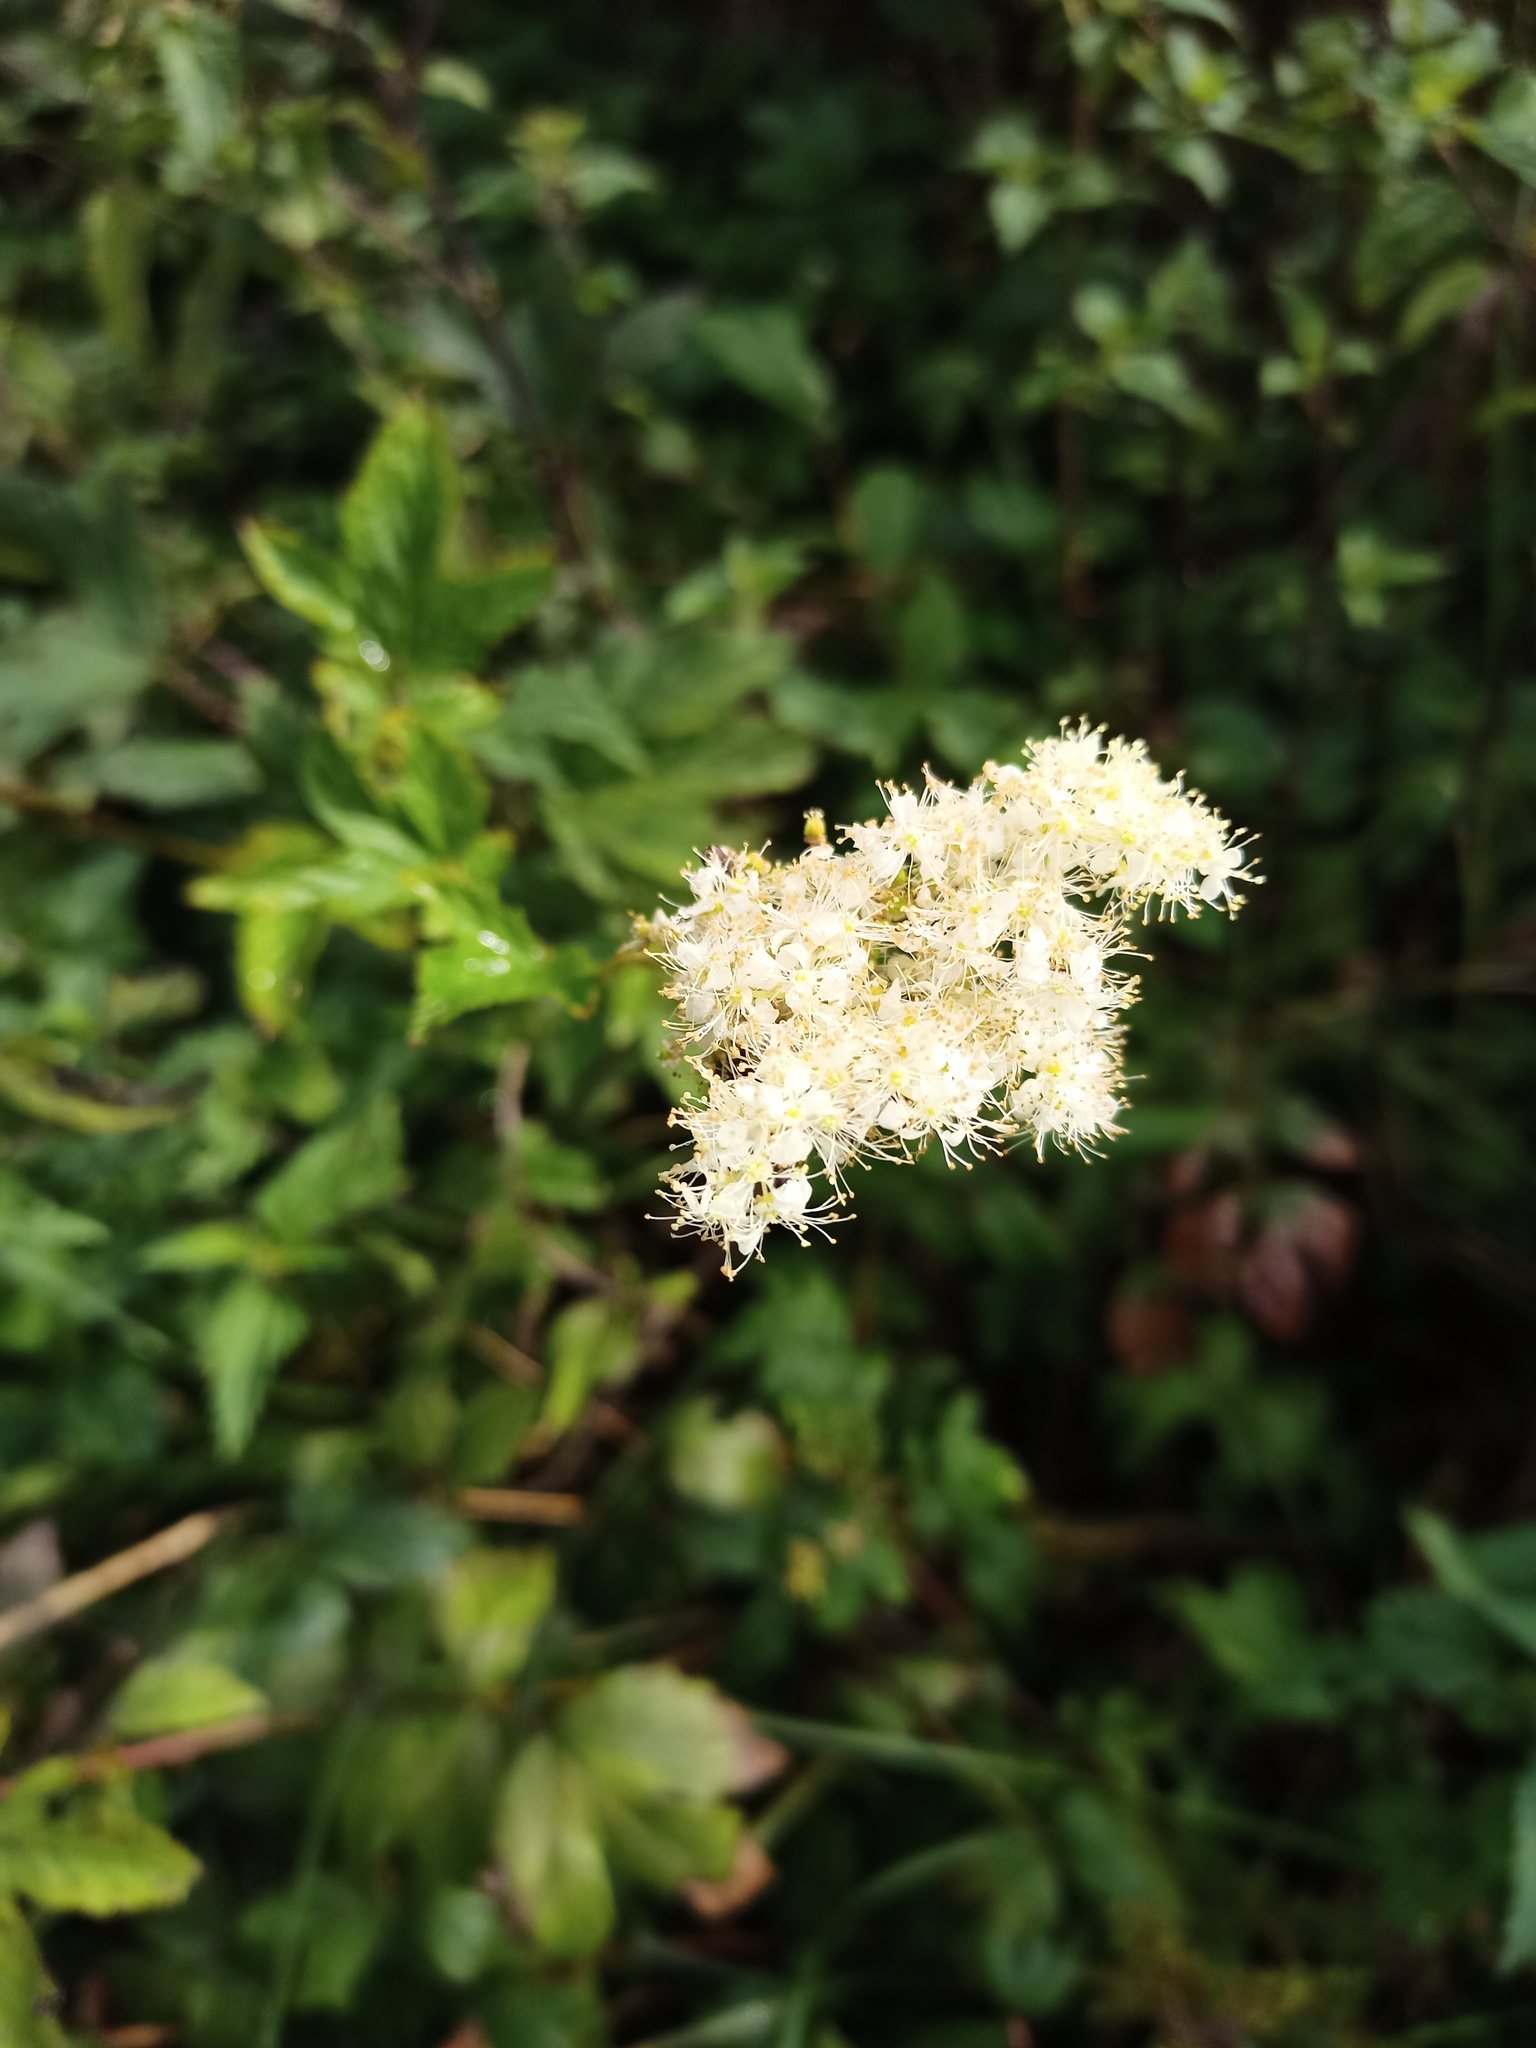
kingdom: Plantae
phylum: Tracheophyta
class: Magnoliopsida
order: Rosales
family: Rosaceae
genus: Filipendula
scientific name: Filipendula ulmaria
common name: Meadowsweet
